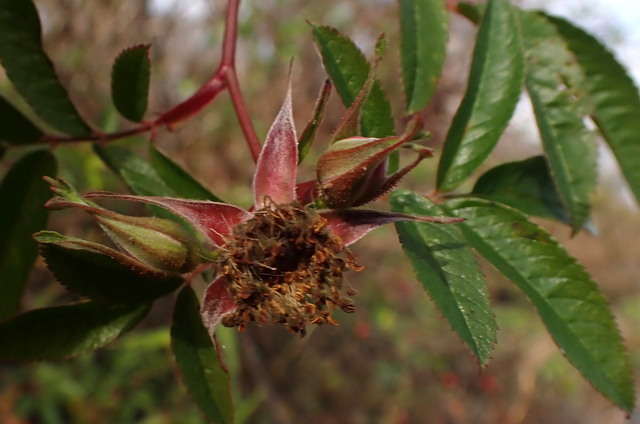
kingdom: Plantae
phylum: Tracheophyta
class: Magnoliopsida
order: Rosales
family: Rosaceae
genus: Rosa
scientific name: Rosa palustris
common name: Swamp rose
